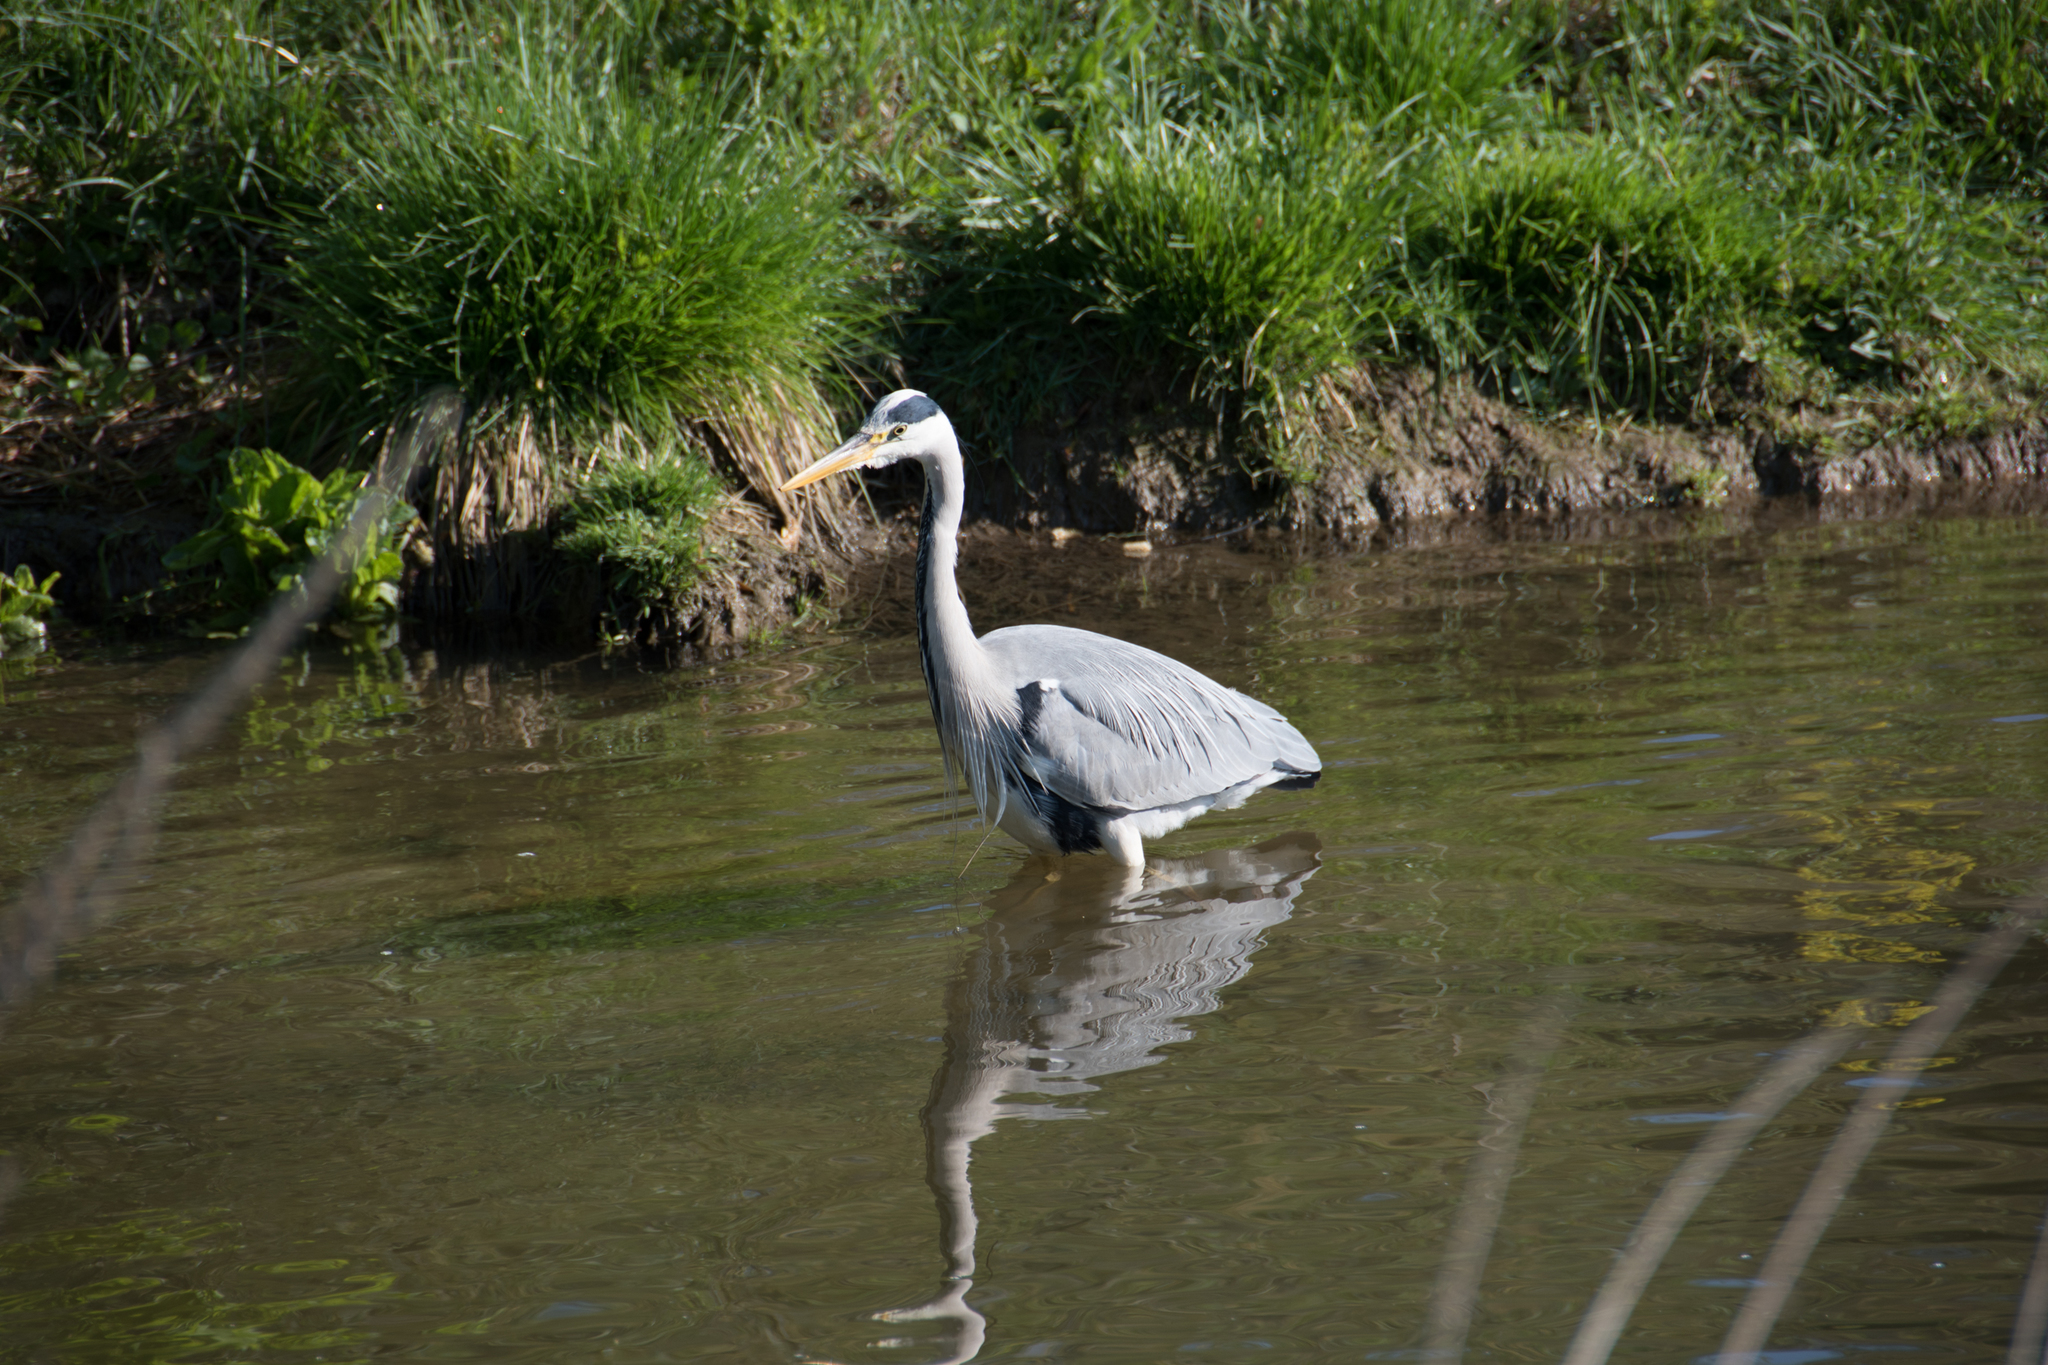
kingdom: Animalia
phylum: Chordata
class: Aves
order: Pelecaniformes
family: Ardeidae
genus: Ardea
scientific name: Ardea cinerea
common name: Grey heron
